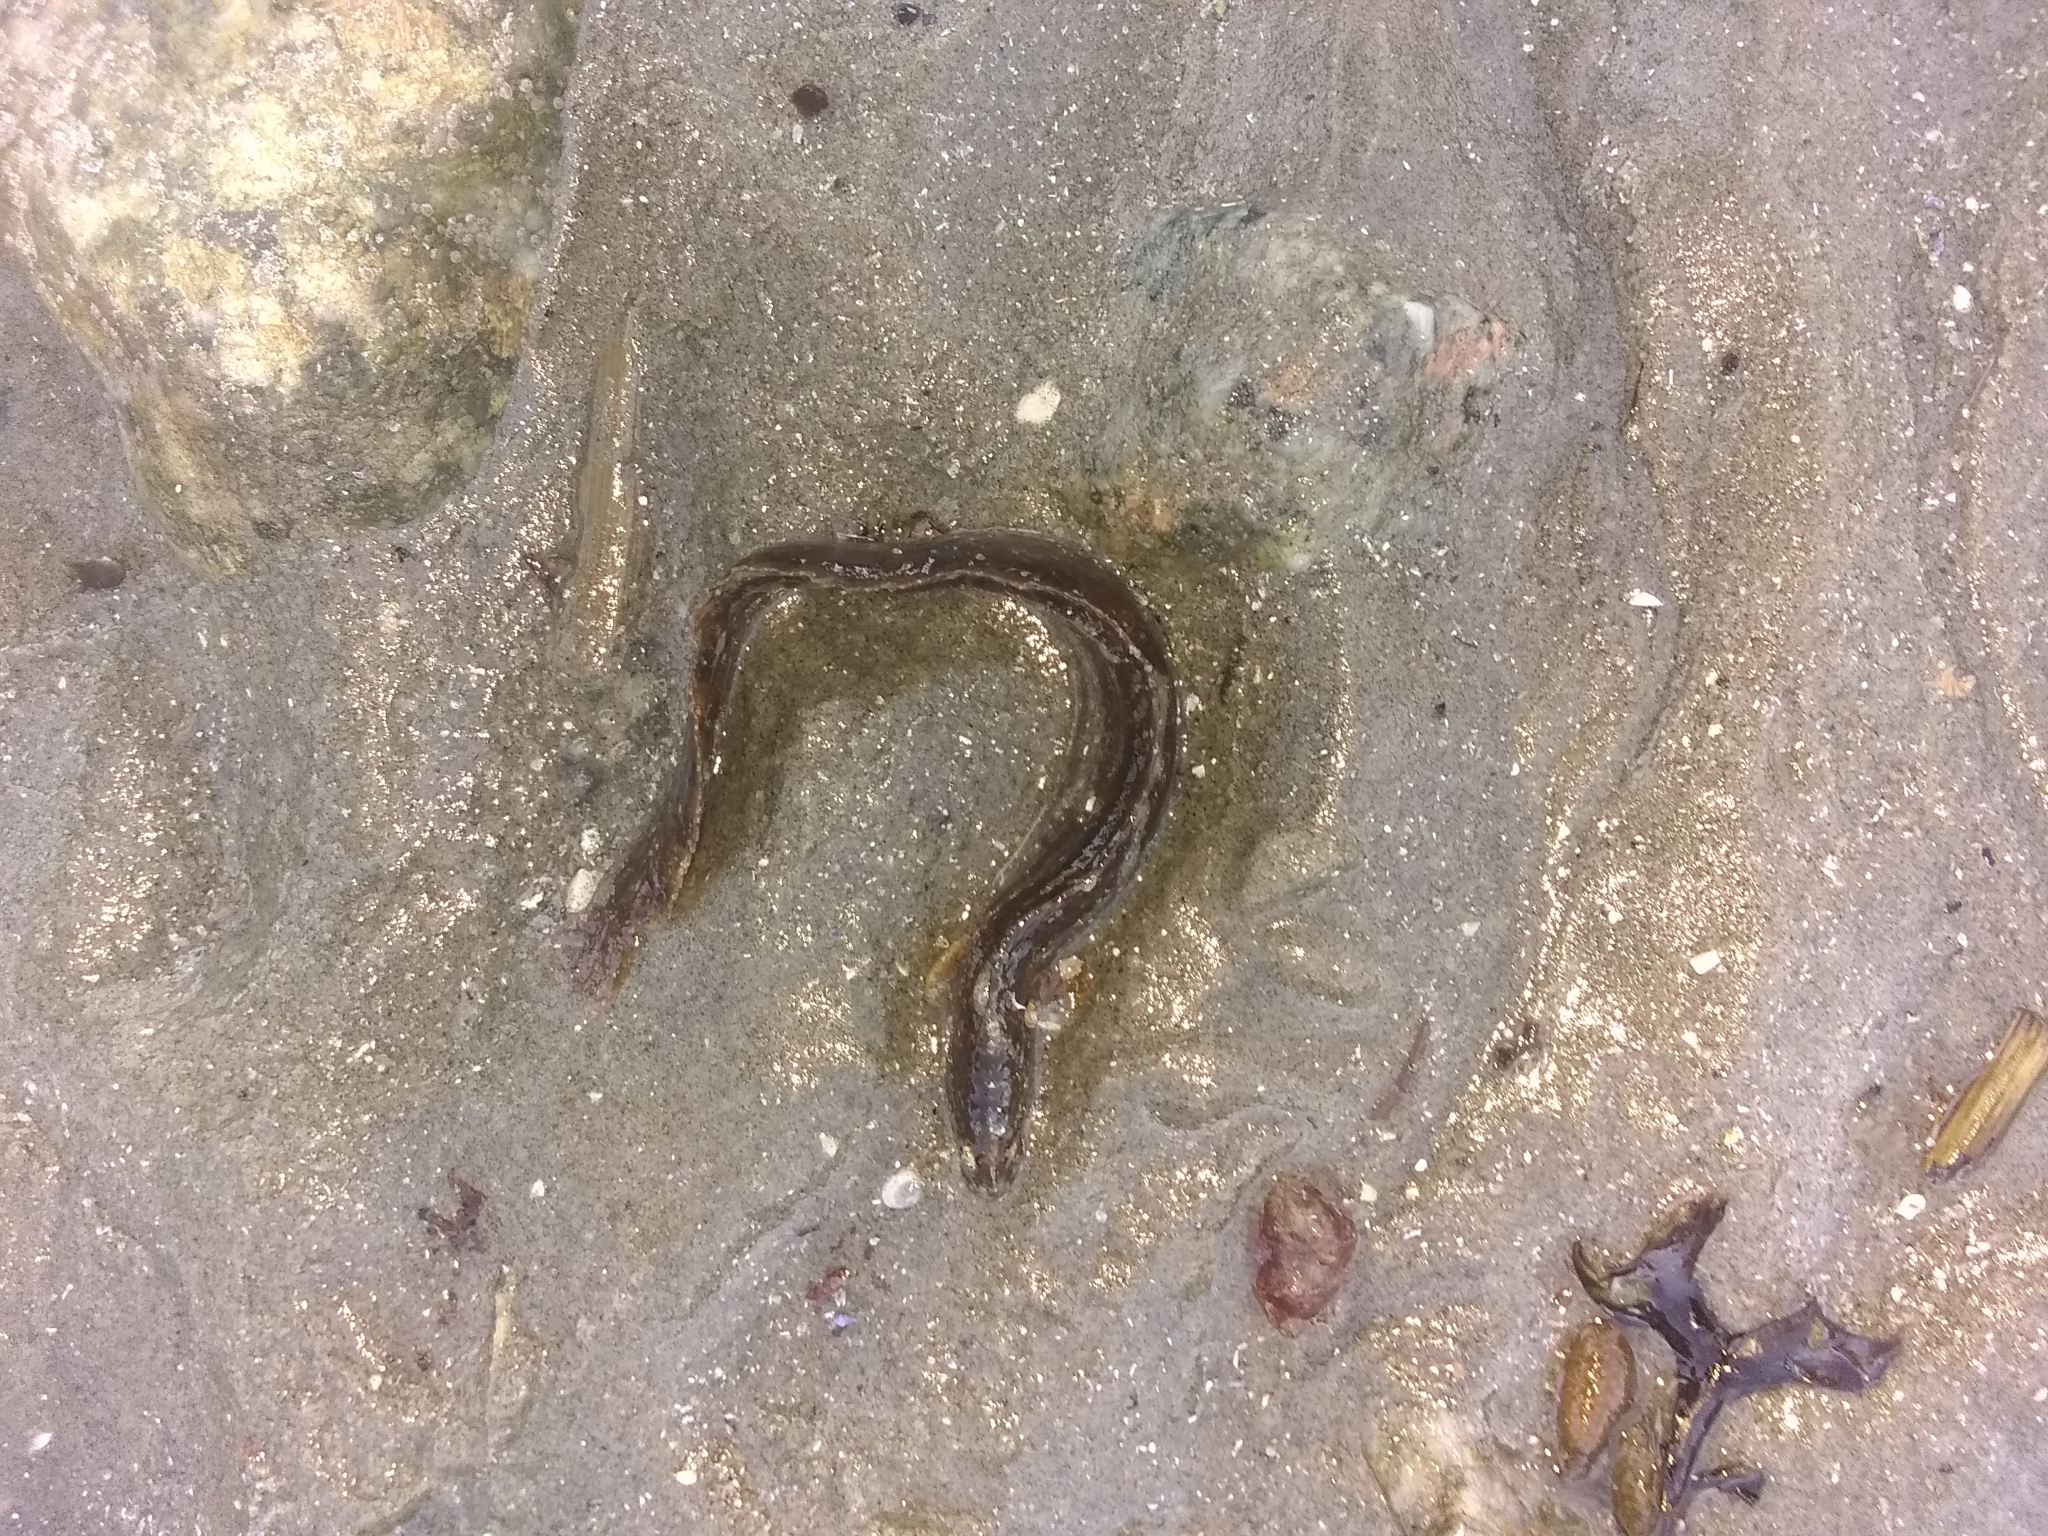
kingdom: Animalia
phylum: Chordata
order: Perciformes
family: Pholidae
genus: Pholis
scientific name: Pholis gunnellus
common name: Butterfish
